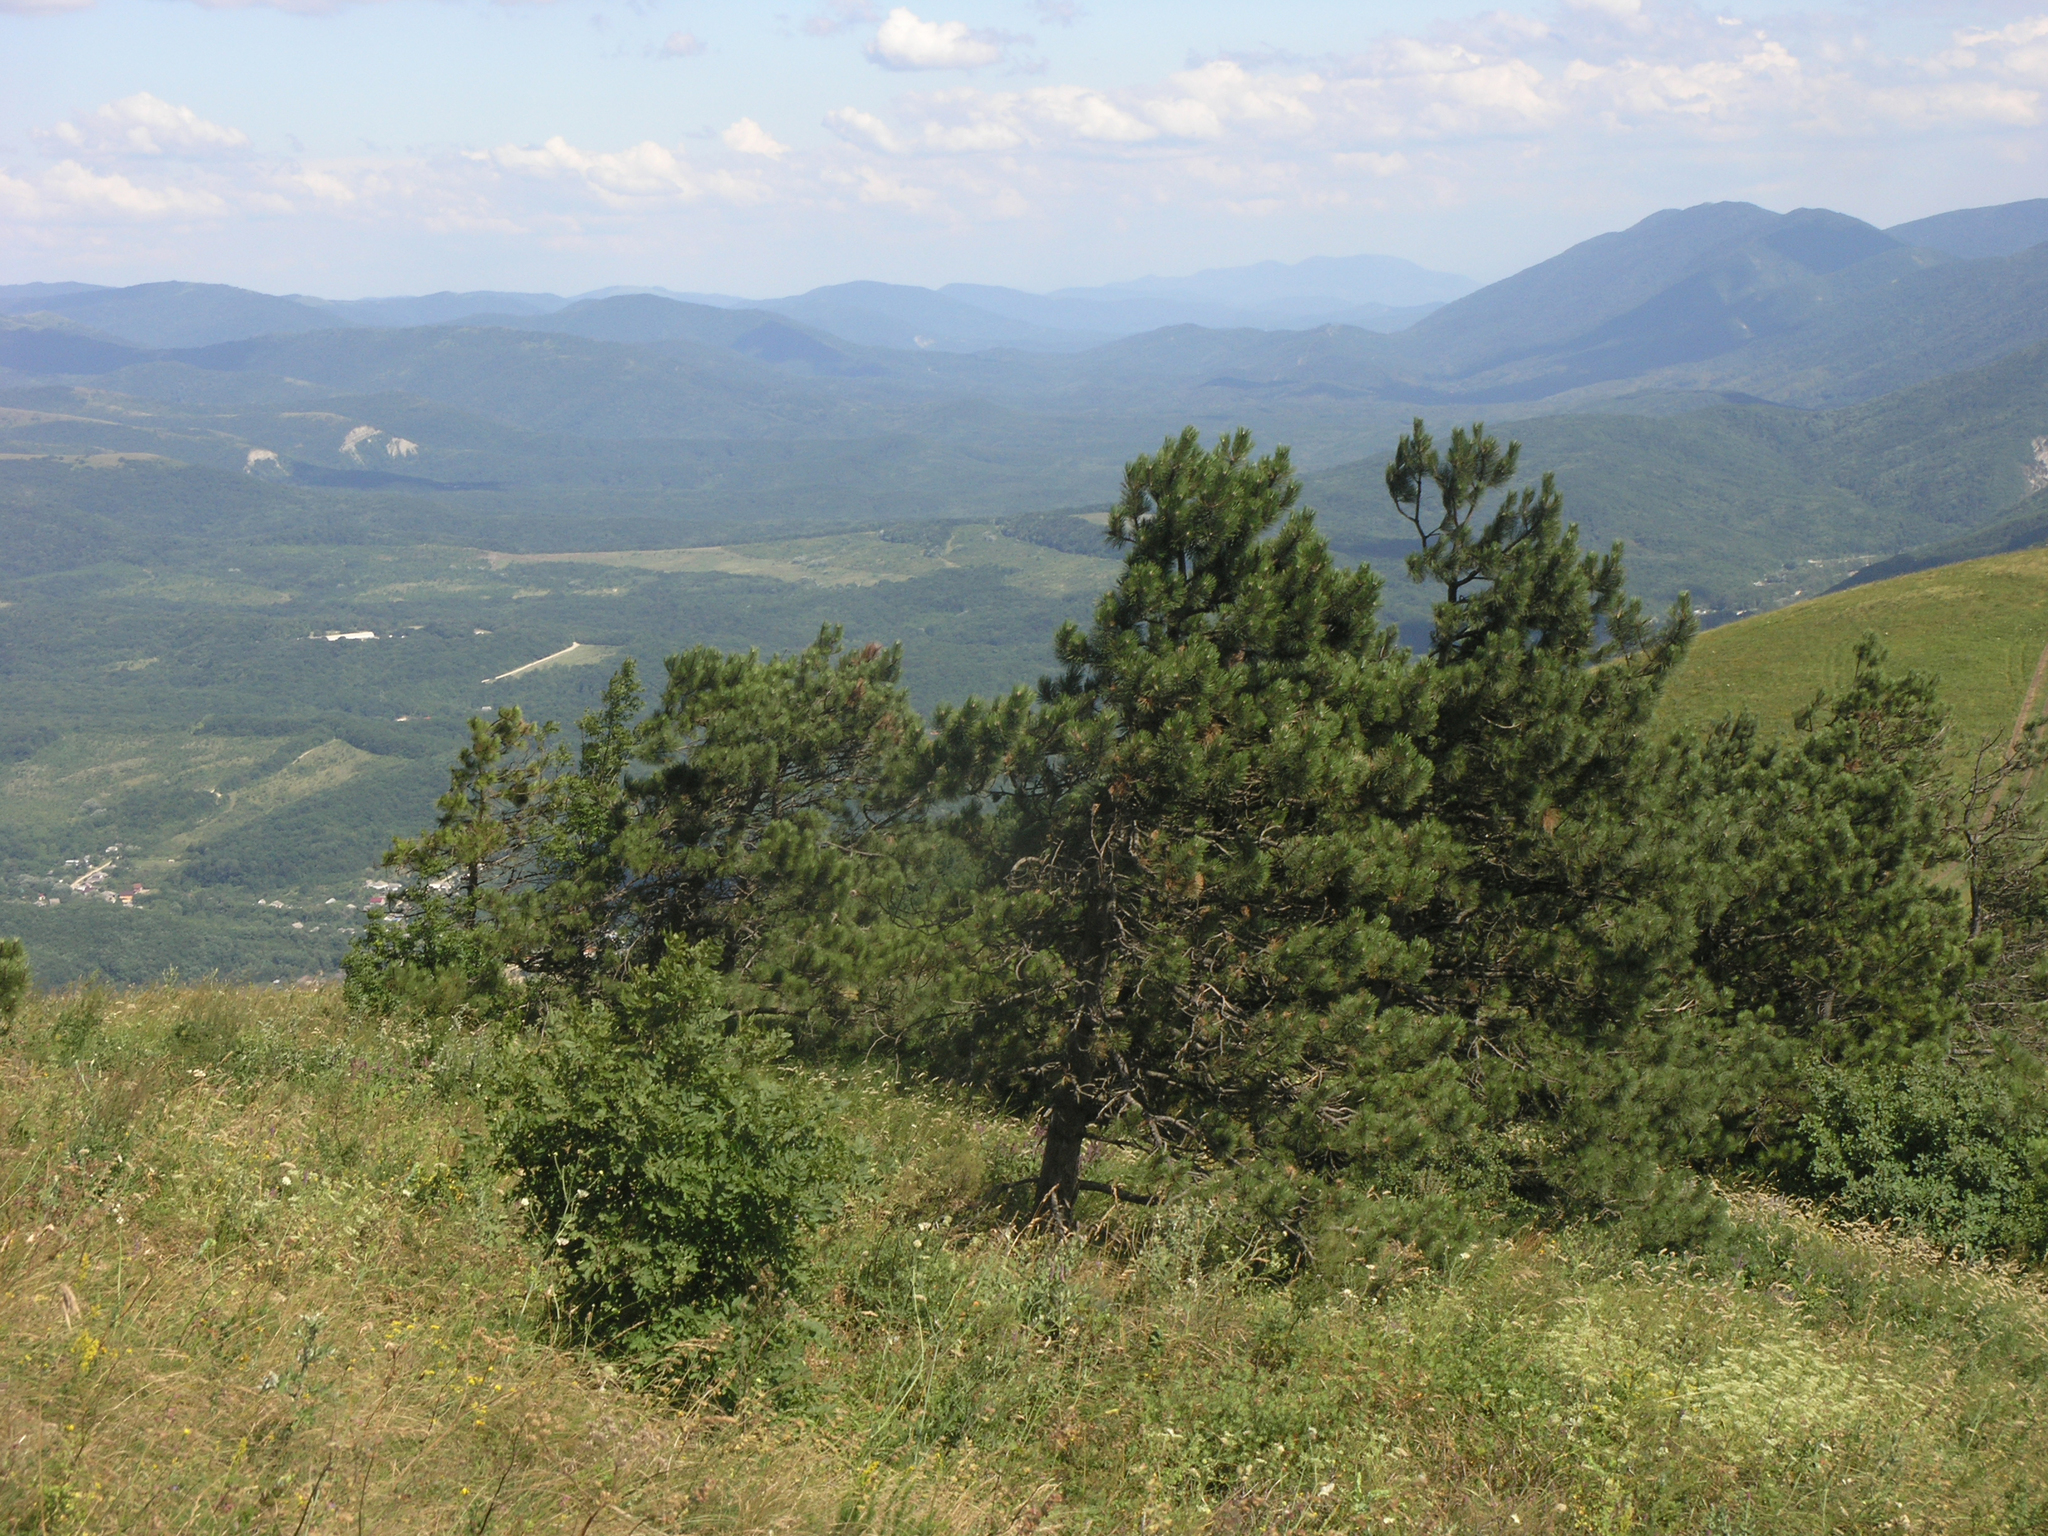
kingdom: Plantae
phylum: Tracheophyta
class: Pinopsida
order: Pinales
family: Pinaceae
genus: Pinus
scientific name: Pinus sylvestris
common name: Scots pine
